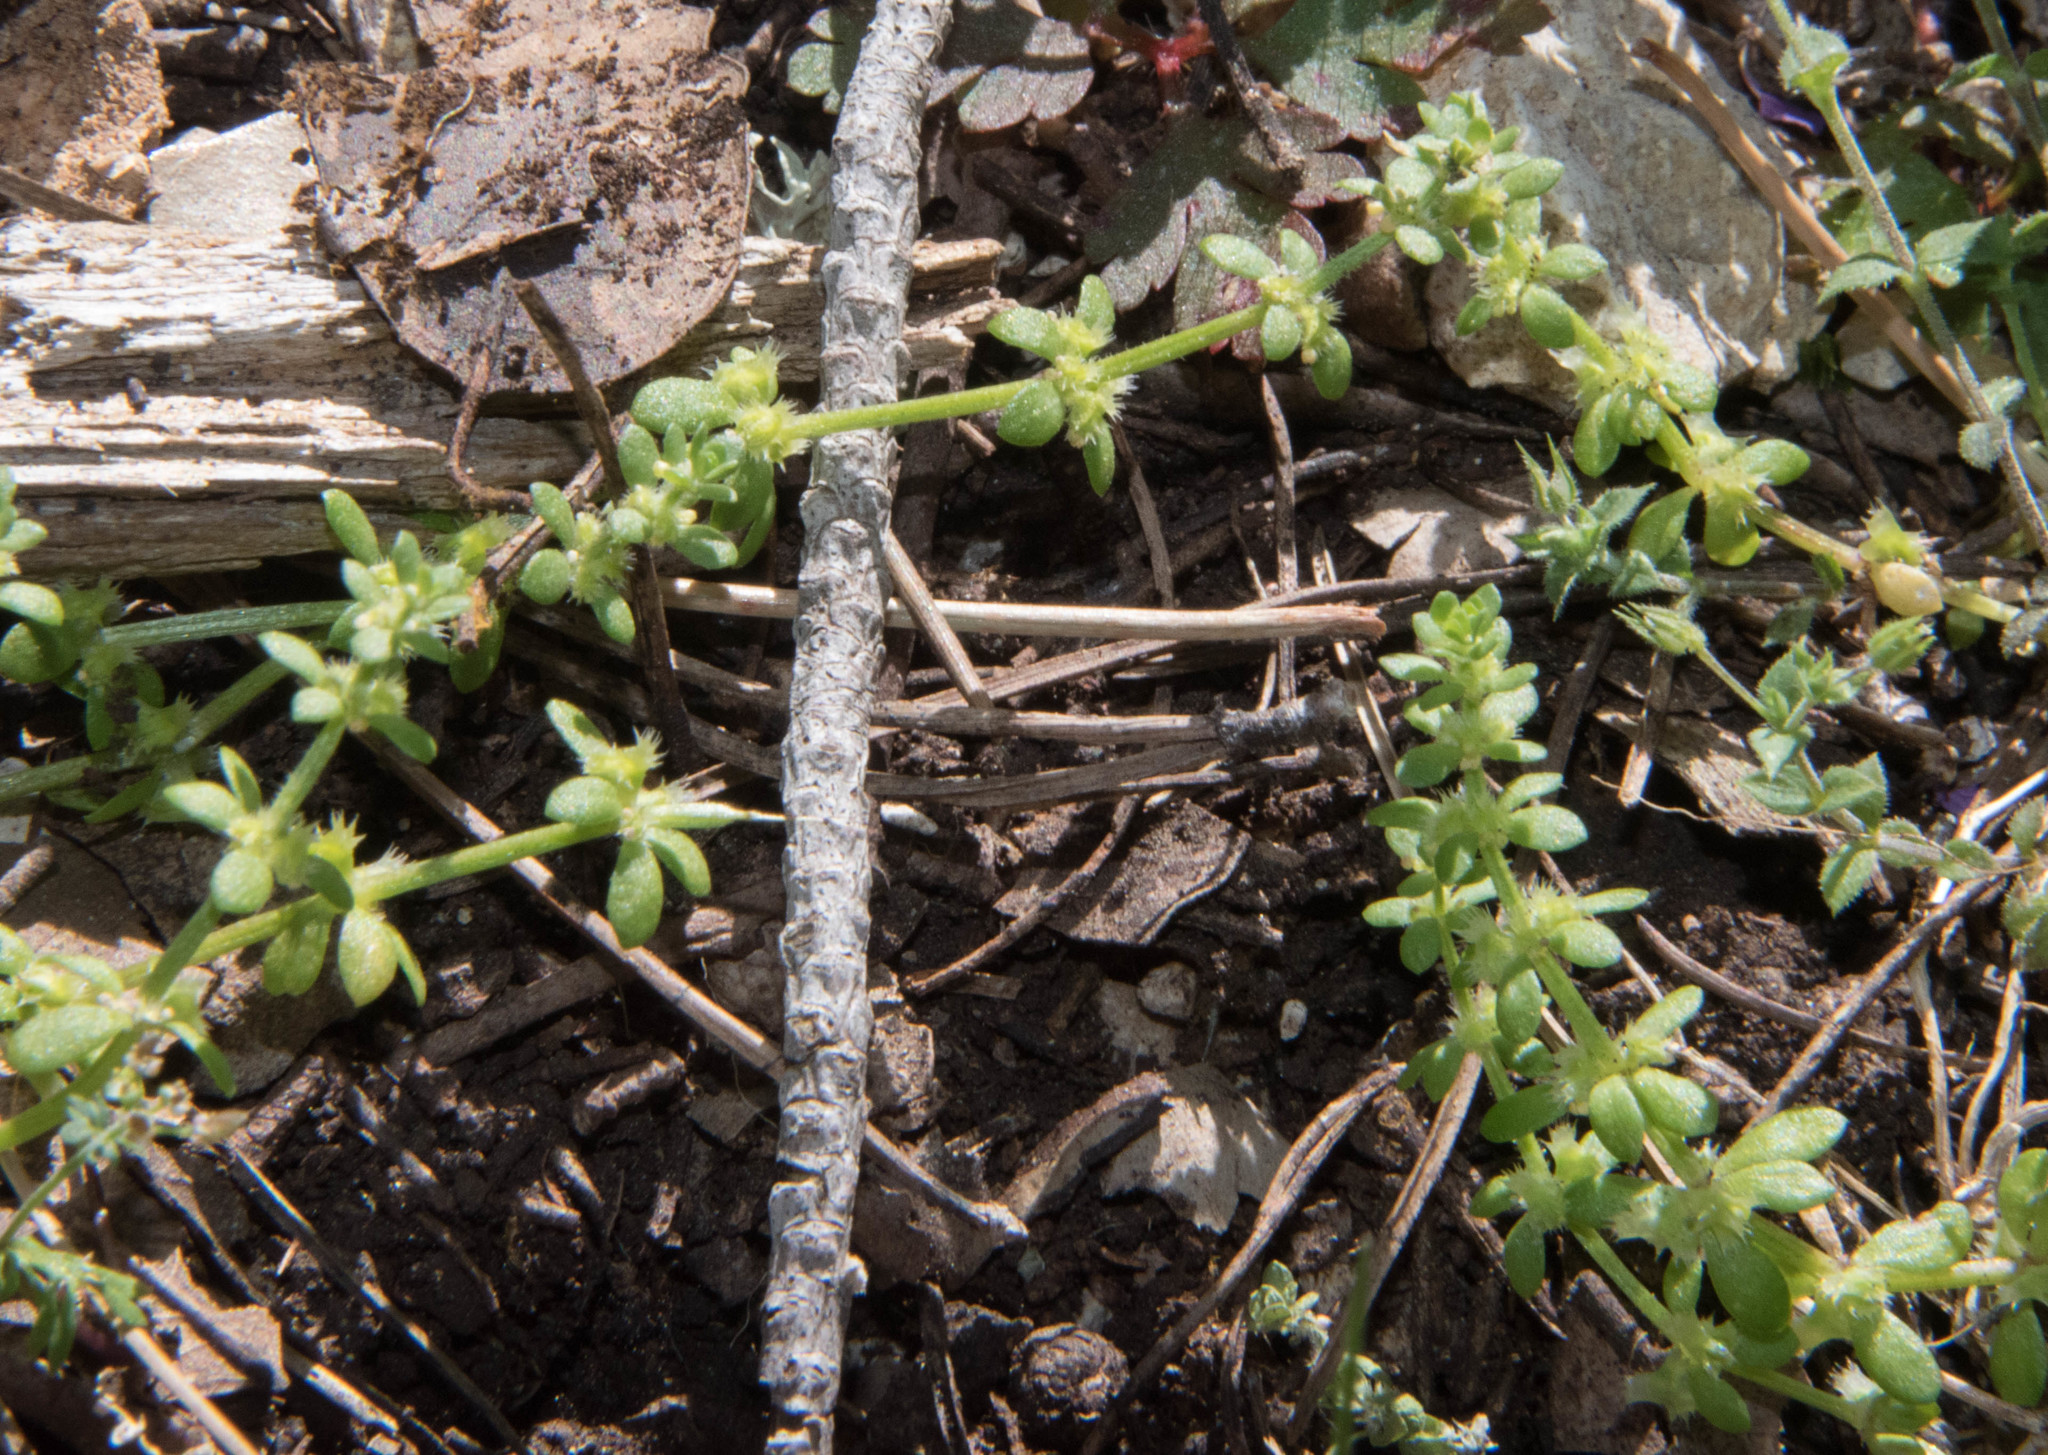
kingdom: Plantae
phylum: Tracheophyta
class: Magnoliopsida
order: Gentianales
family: Rubiaceae
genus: Galium
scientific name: Galium murale
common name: Yellow wall bedstraw
